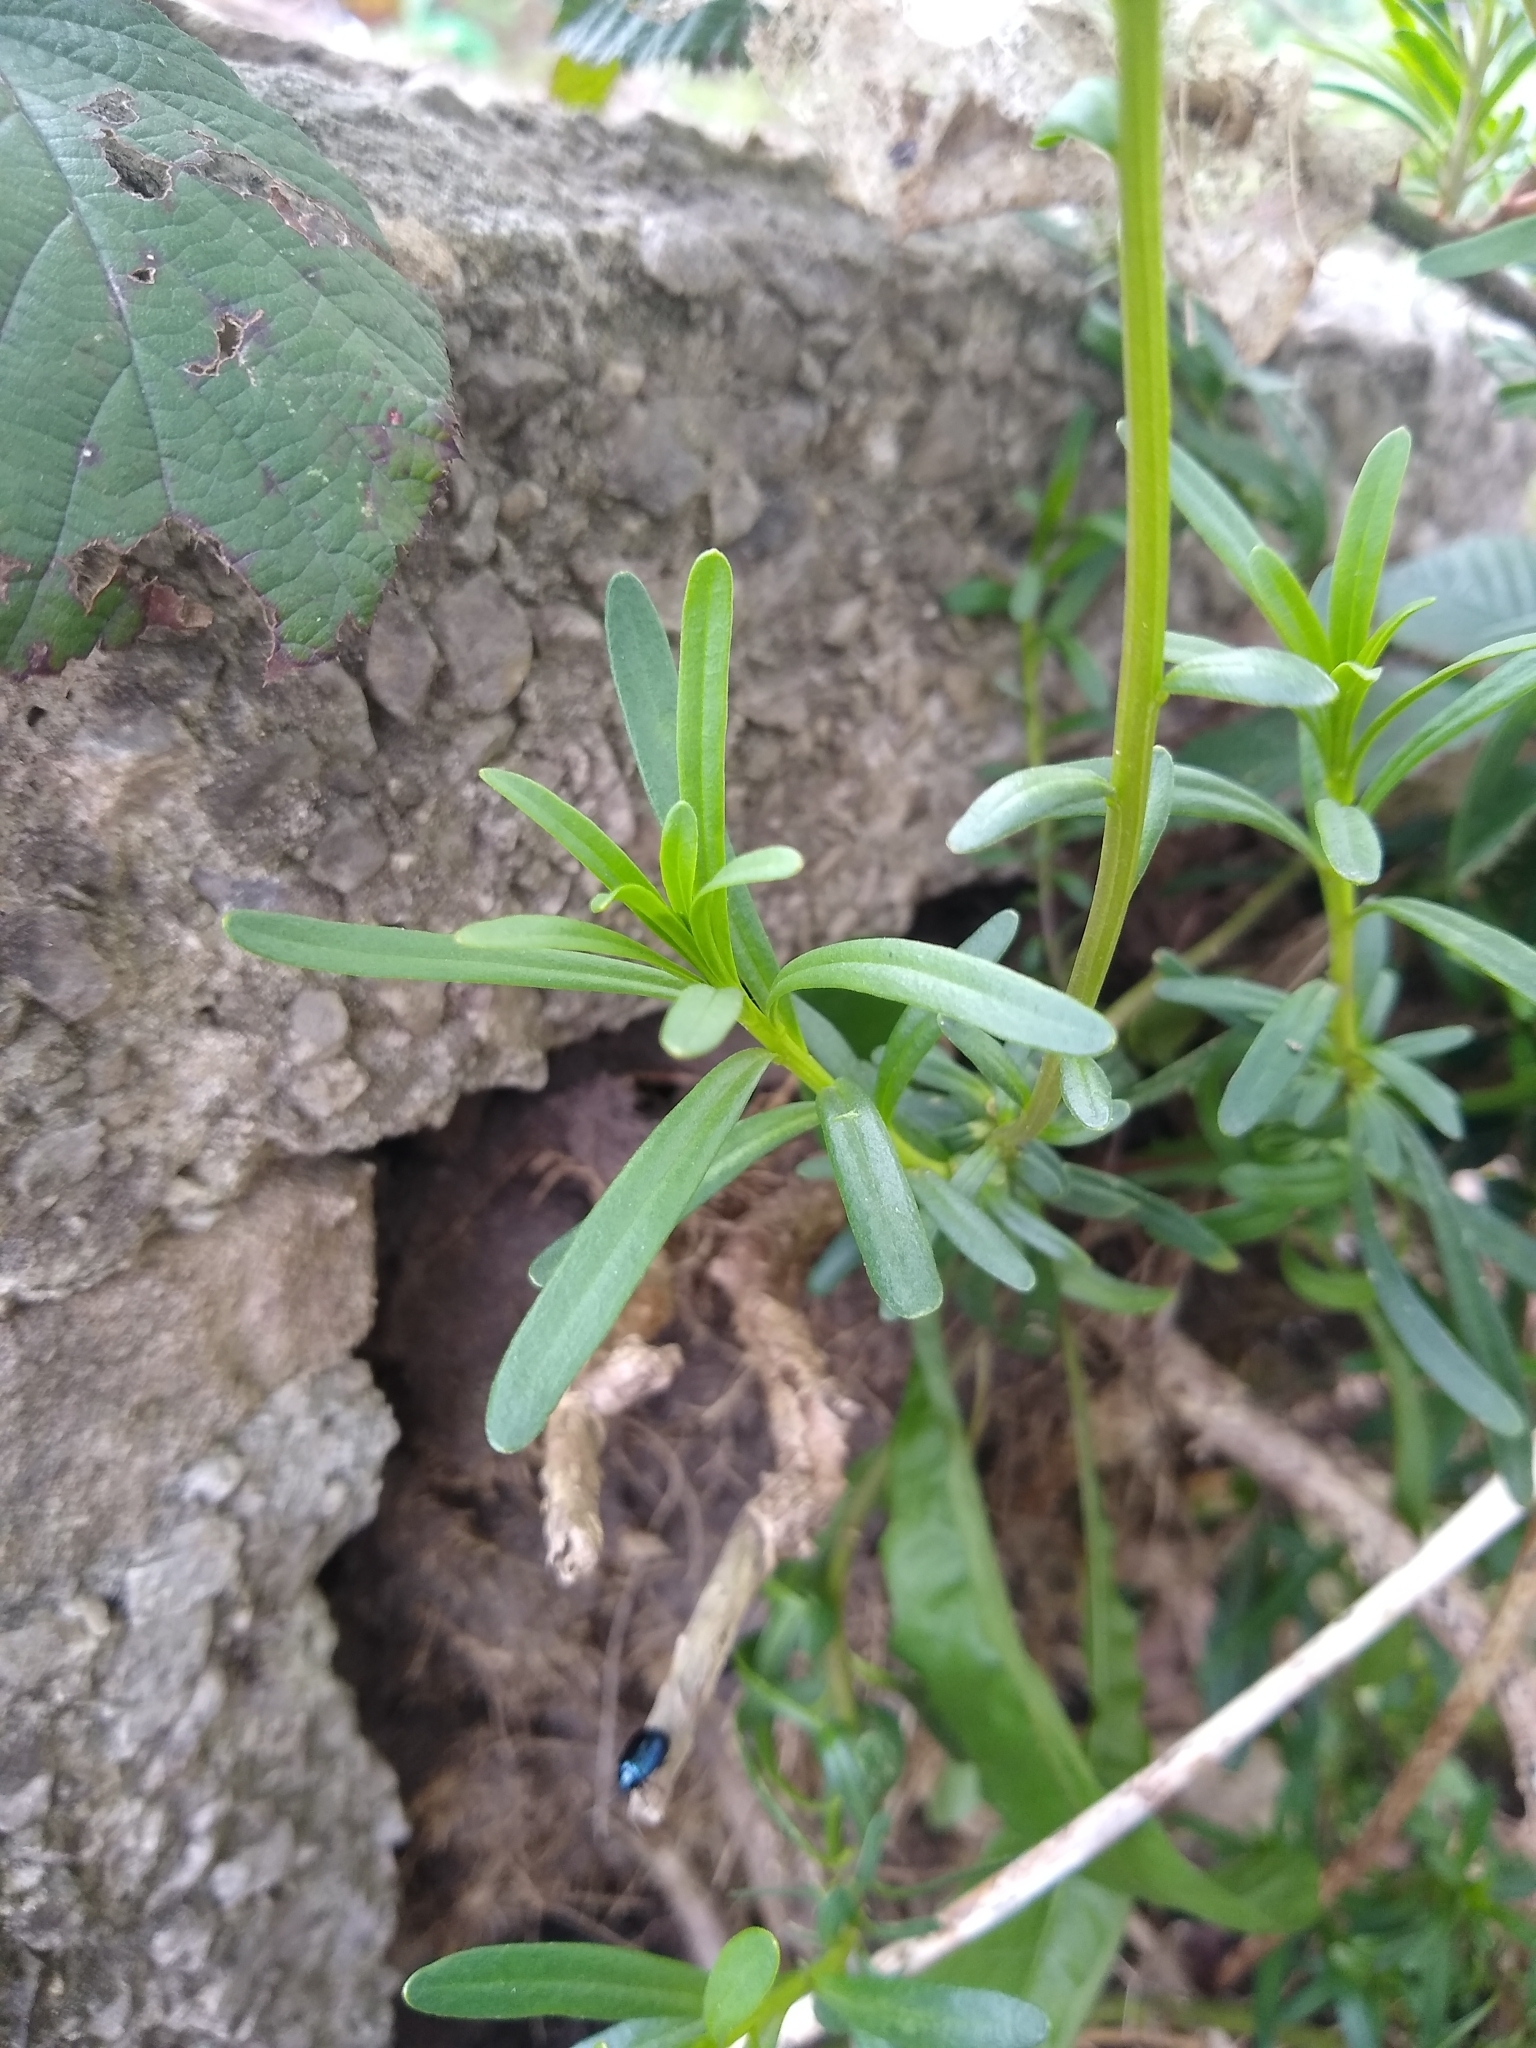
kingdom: Plantae
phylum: Tracheophyta
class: Magnoliopsida
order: Brassicales
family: Brassicaceae
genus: Iberis
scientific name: Iberis sempervirens
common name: Evergreen candytuft
